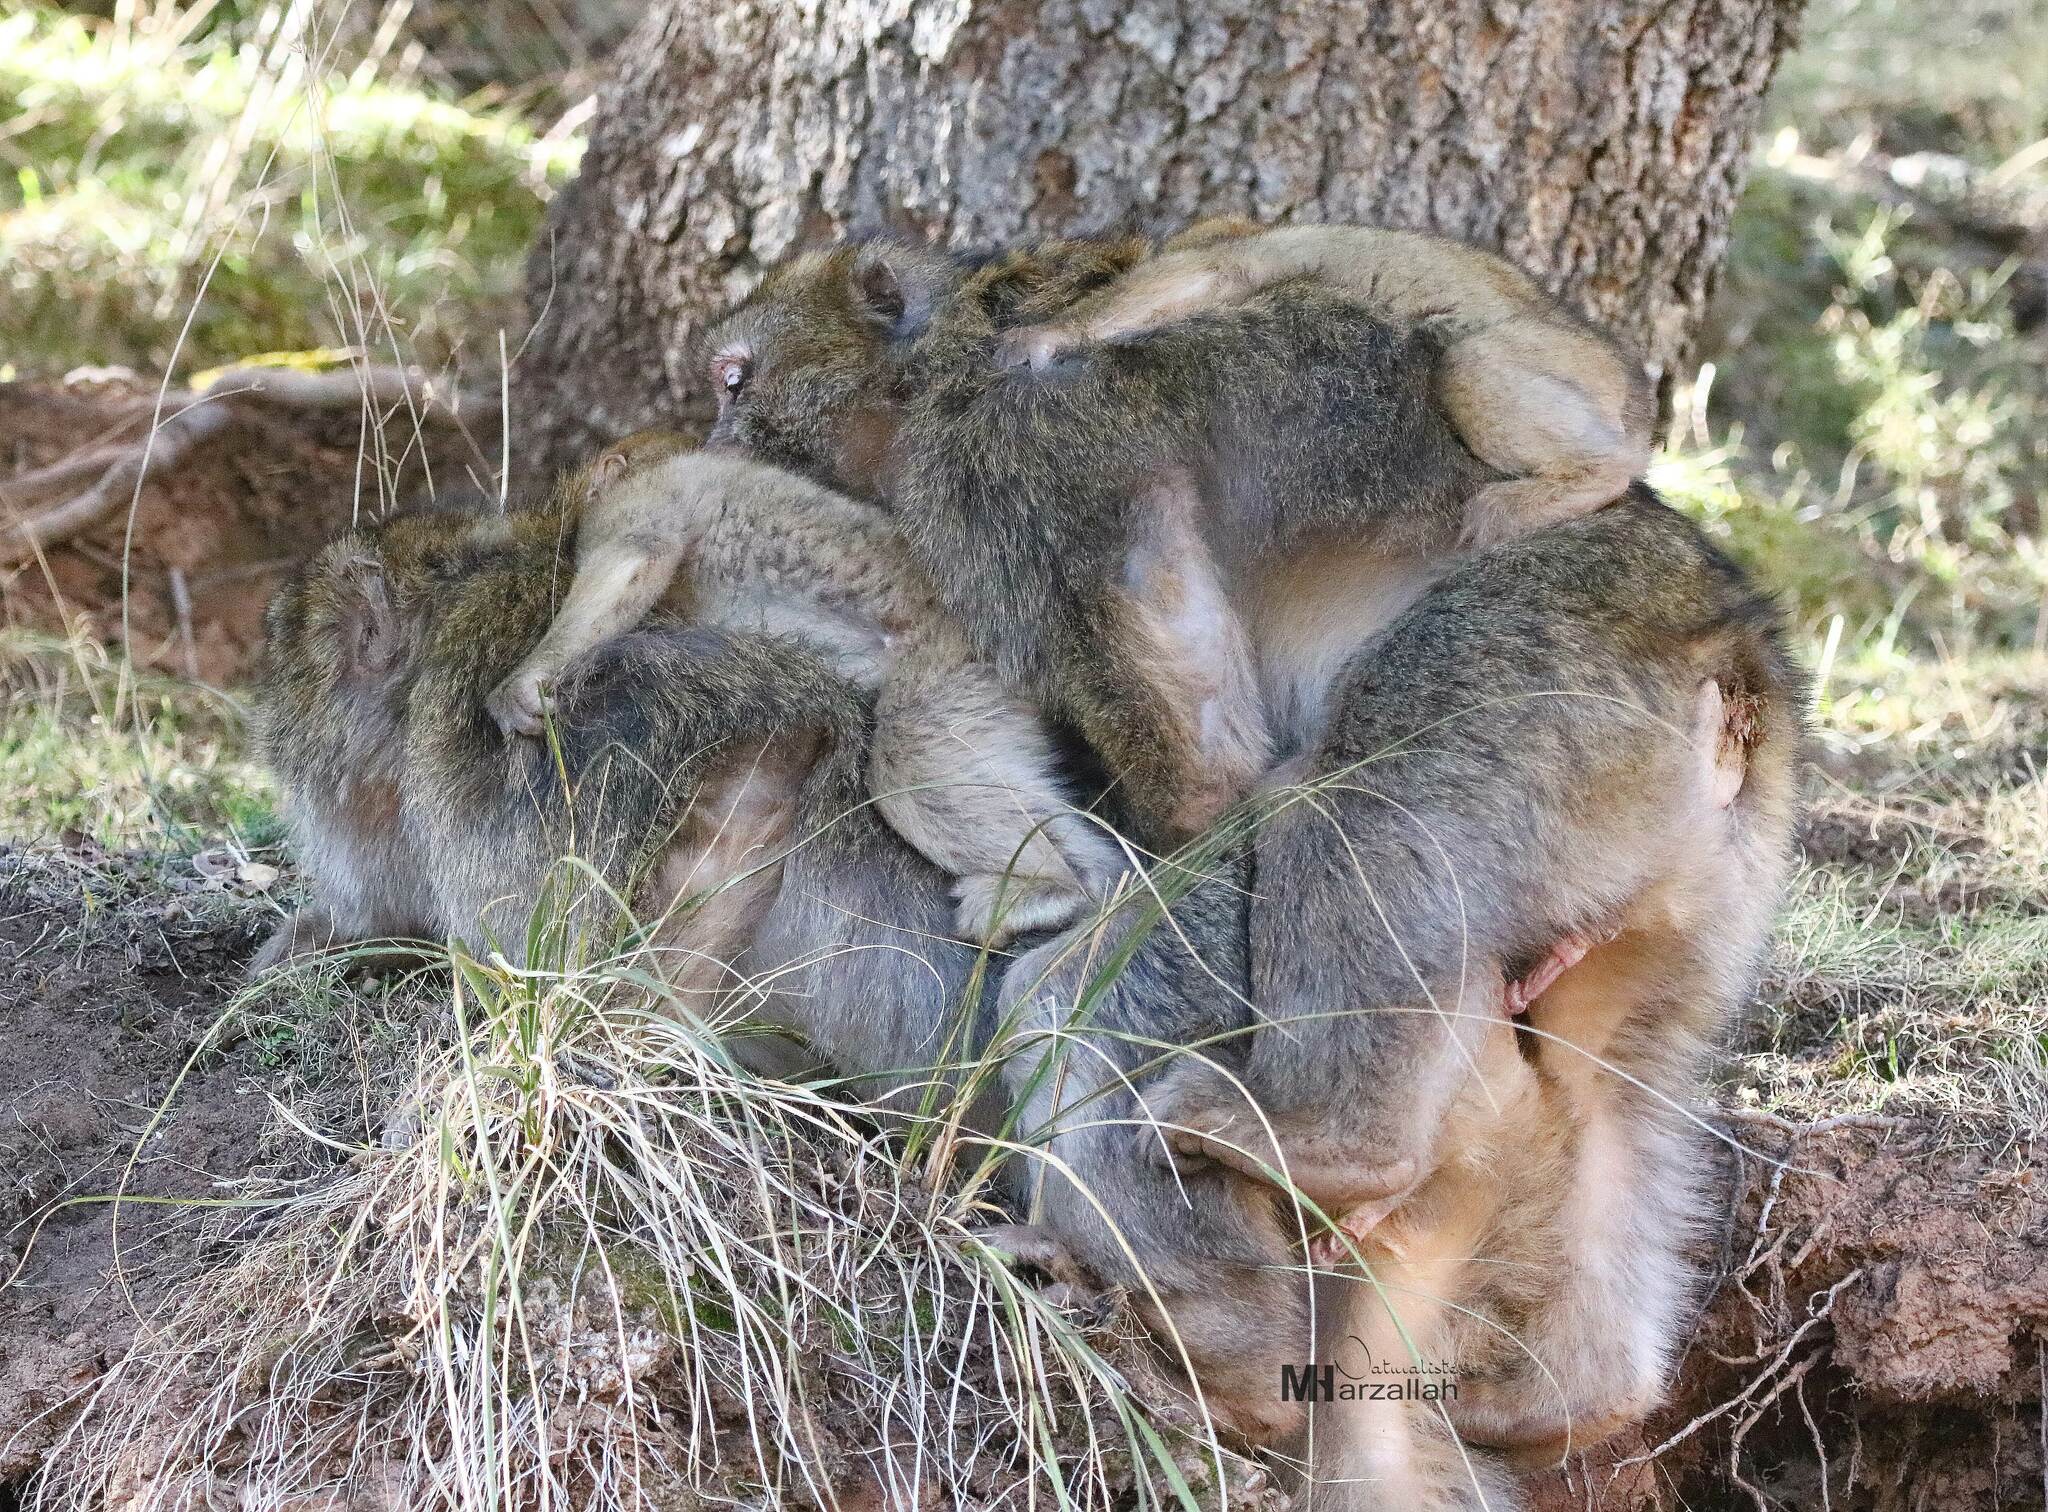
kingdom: Animalia
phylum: Chordata
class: Mammalia
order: Primates
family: Cercopithecidae
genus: Macaca
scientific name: Macaca sylvanus
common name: Barbary macaque
